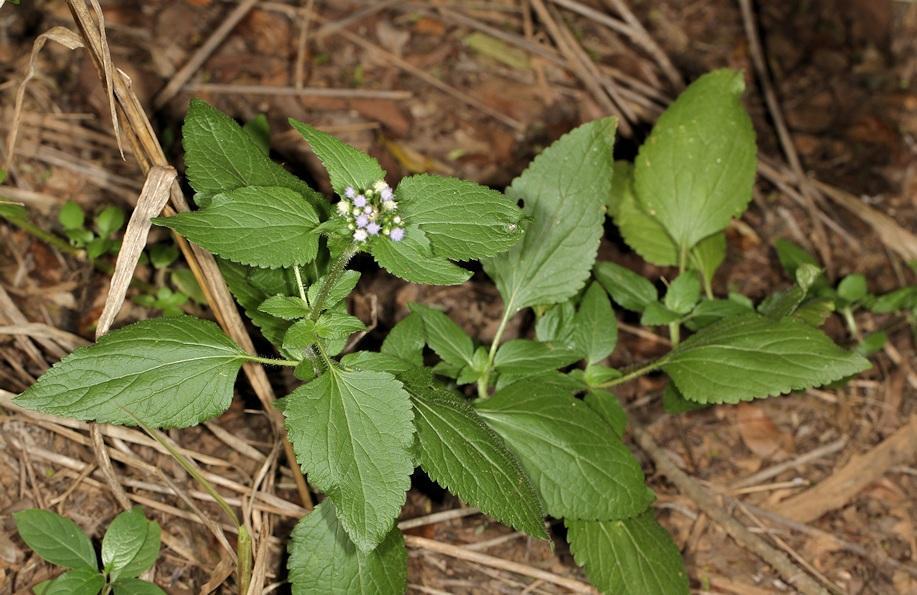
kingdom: Plantae
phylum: Tracheophyta
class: Magnoliopsida
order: Asterales
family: Asteraceae
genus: Ageratum
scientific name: Ageratum conyzoides
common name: Tropical whiteweed
